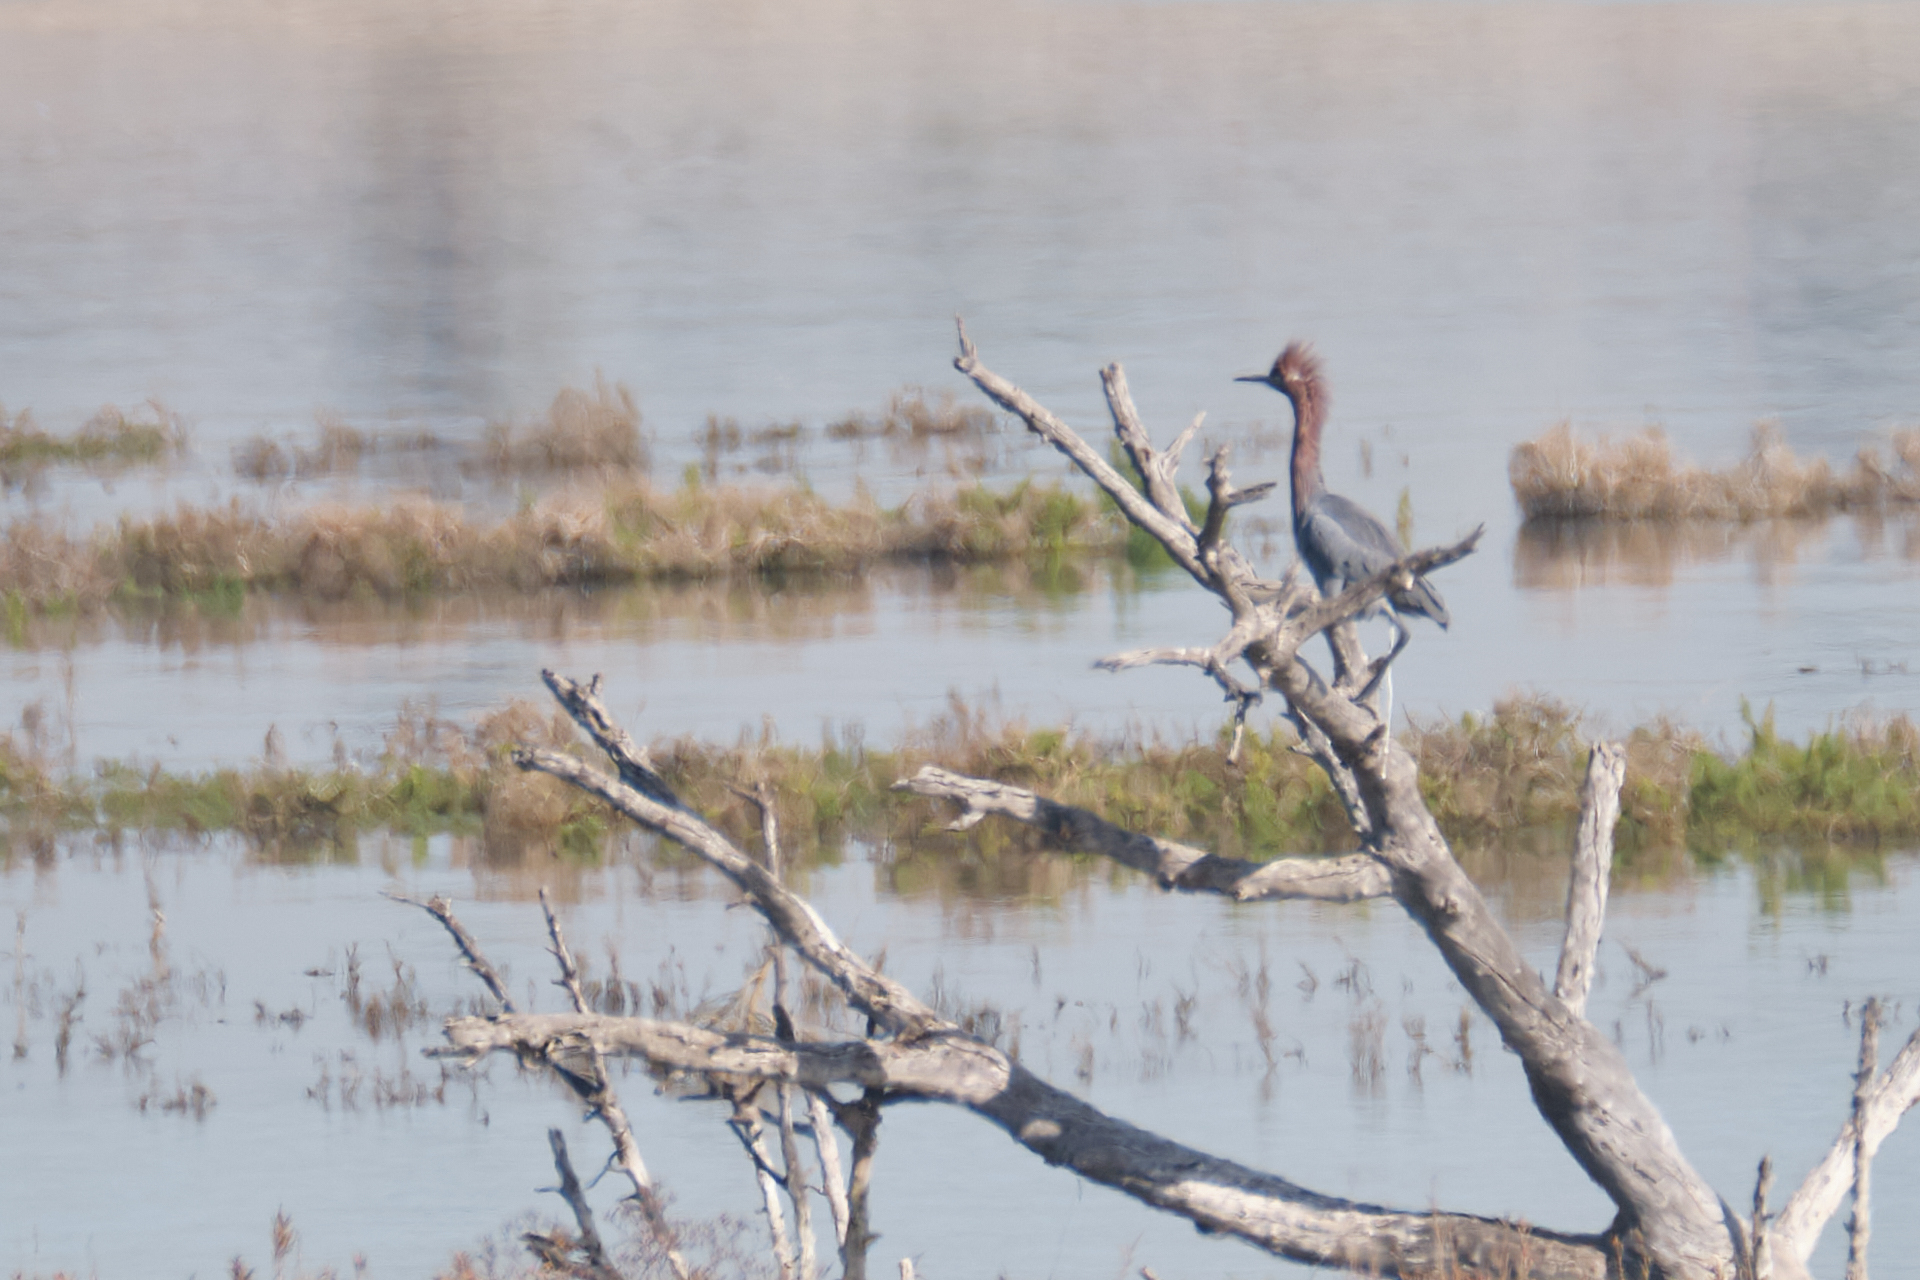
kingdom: Animalia
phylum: Chordata
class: Aves
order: Pelecaniformes
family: Ardeidae
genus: Egretta
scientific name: Egretta rufescens
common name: Reddish egret
